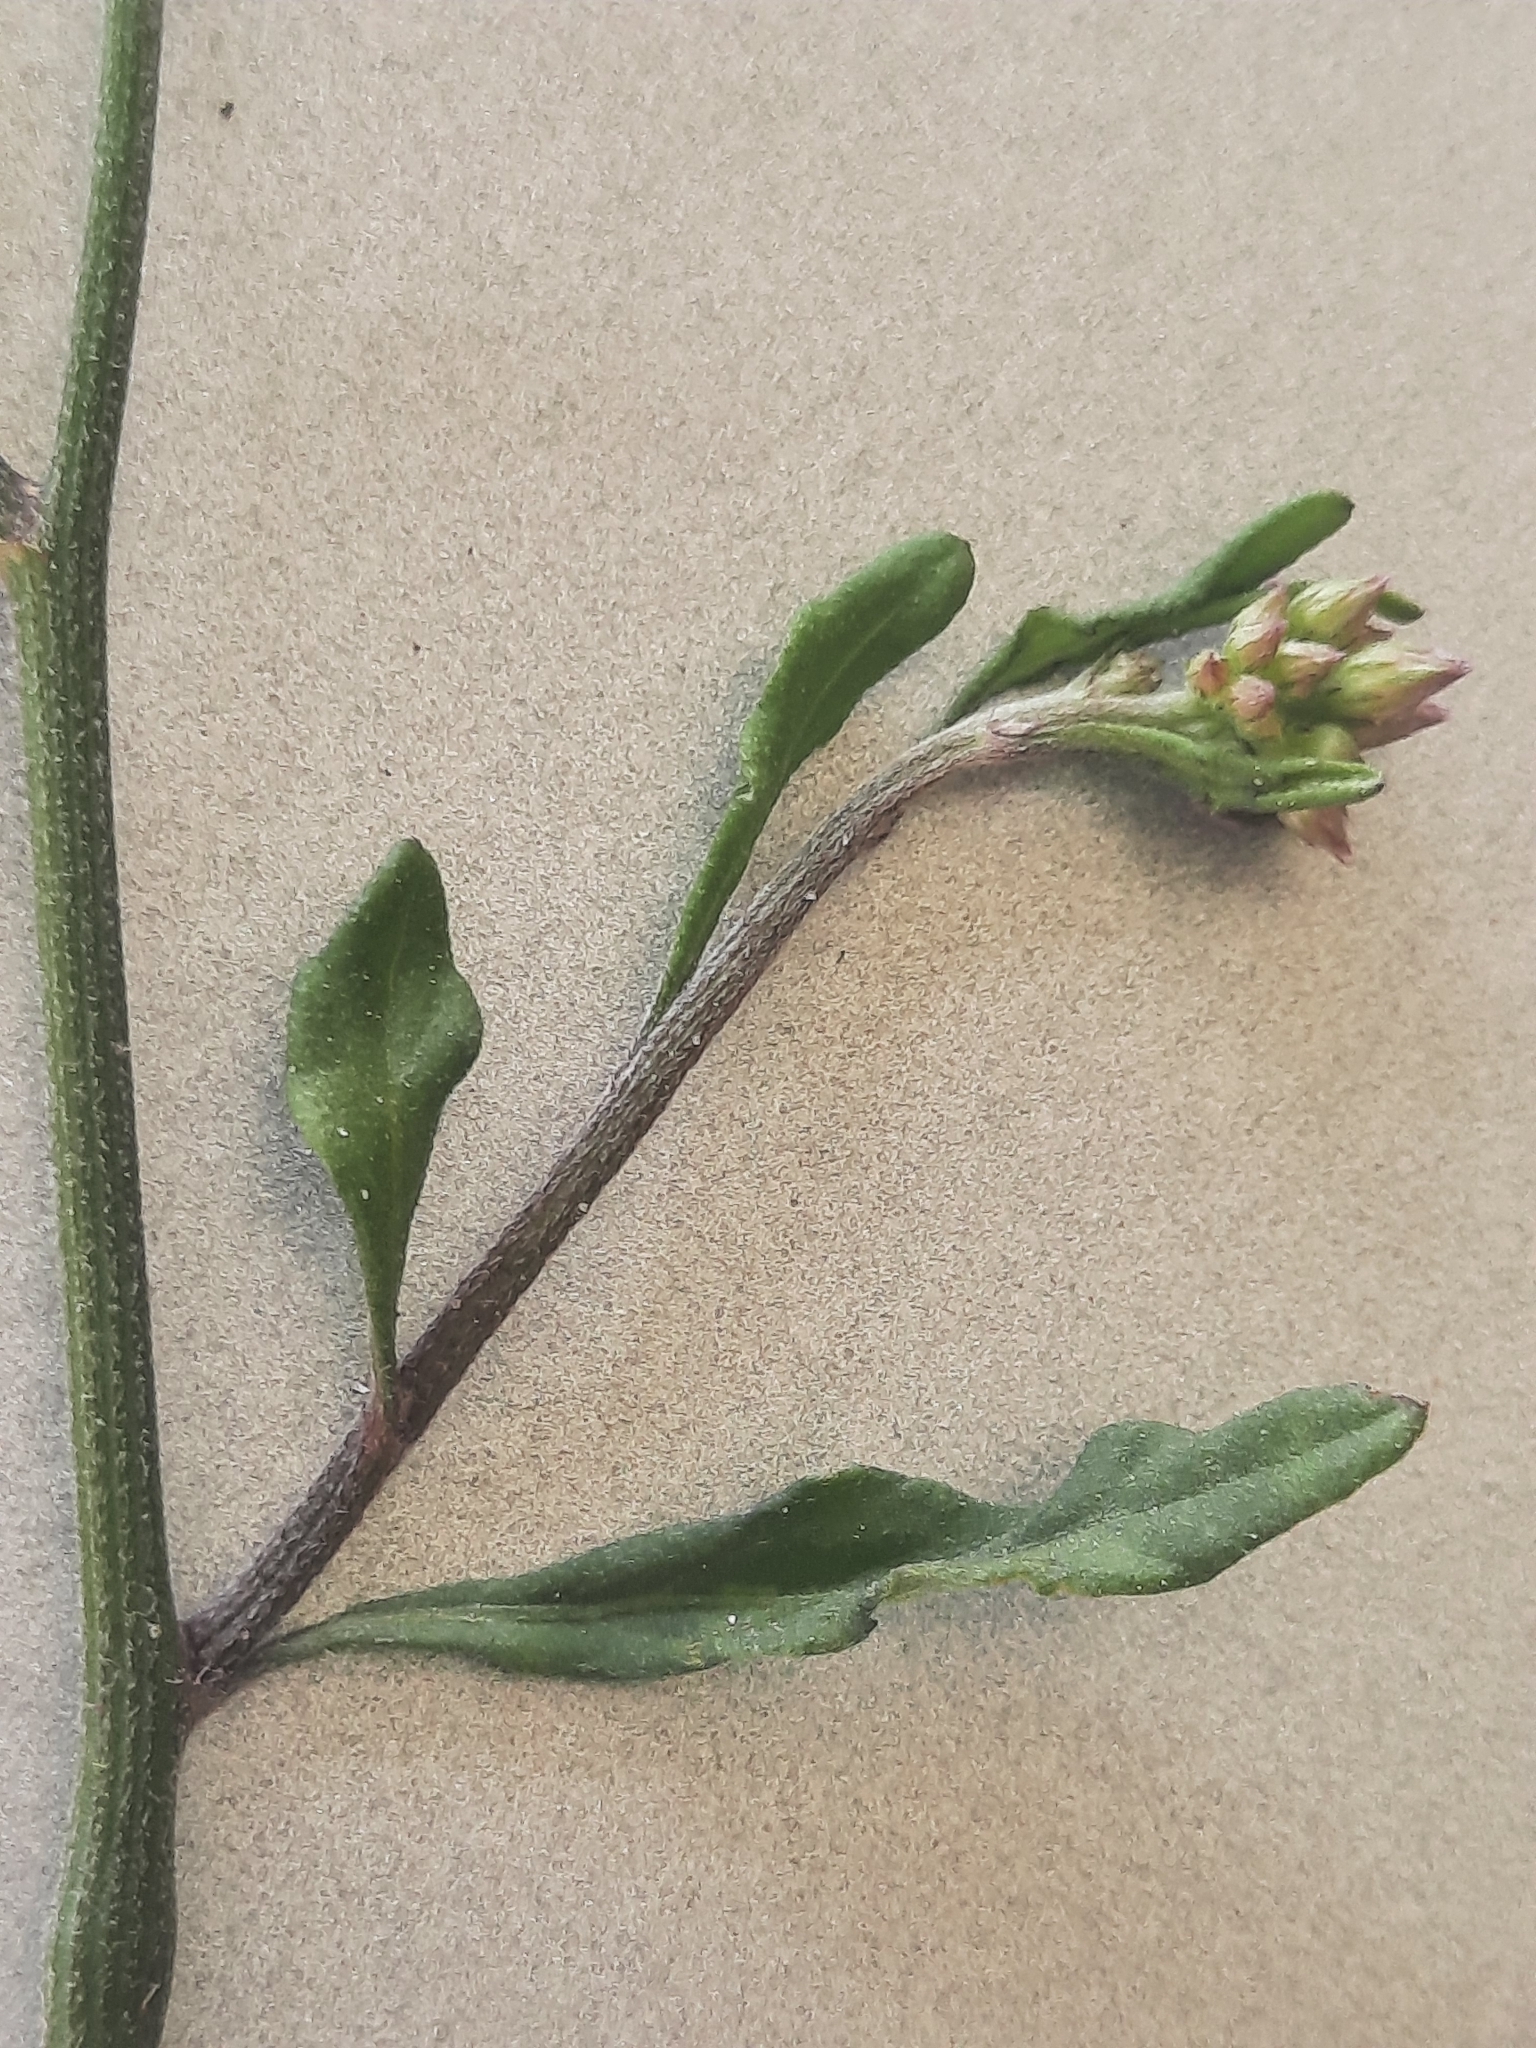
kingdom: Plantae
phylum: Tracheophyta
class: Magnoliopsida
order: Asterales
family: Asteraceae
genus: Cyanthillium
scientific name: Cyanthillium cinereum
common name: Little ironweed
